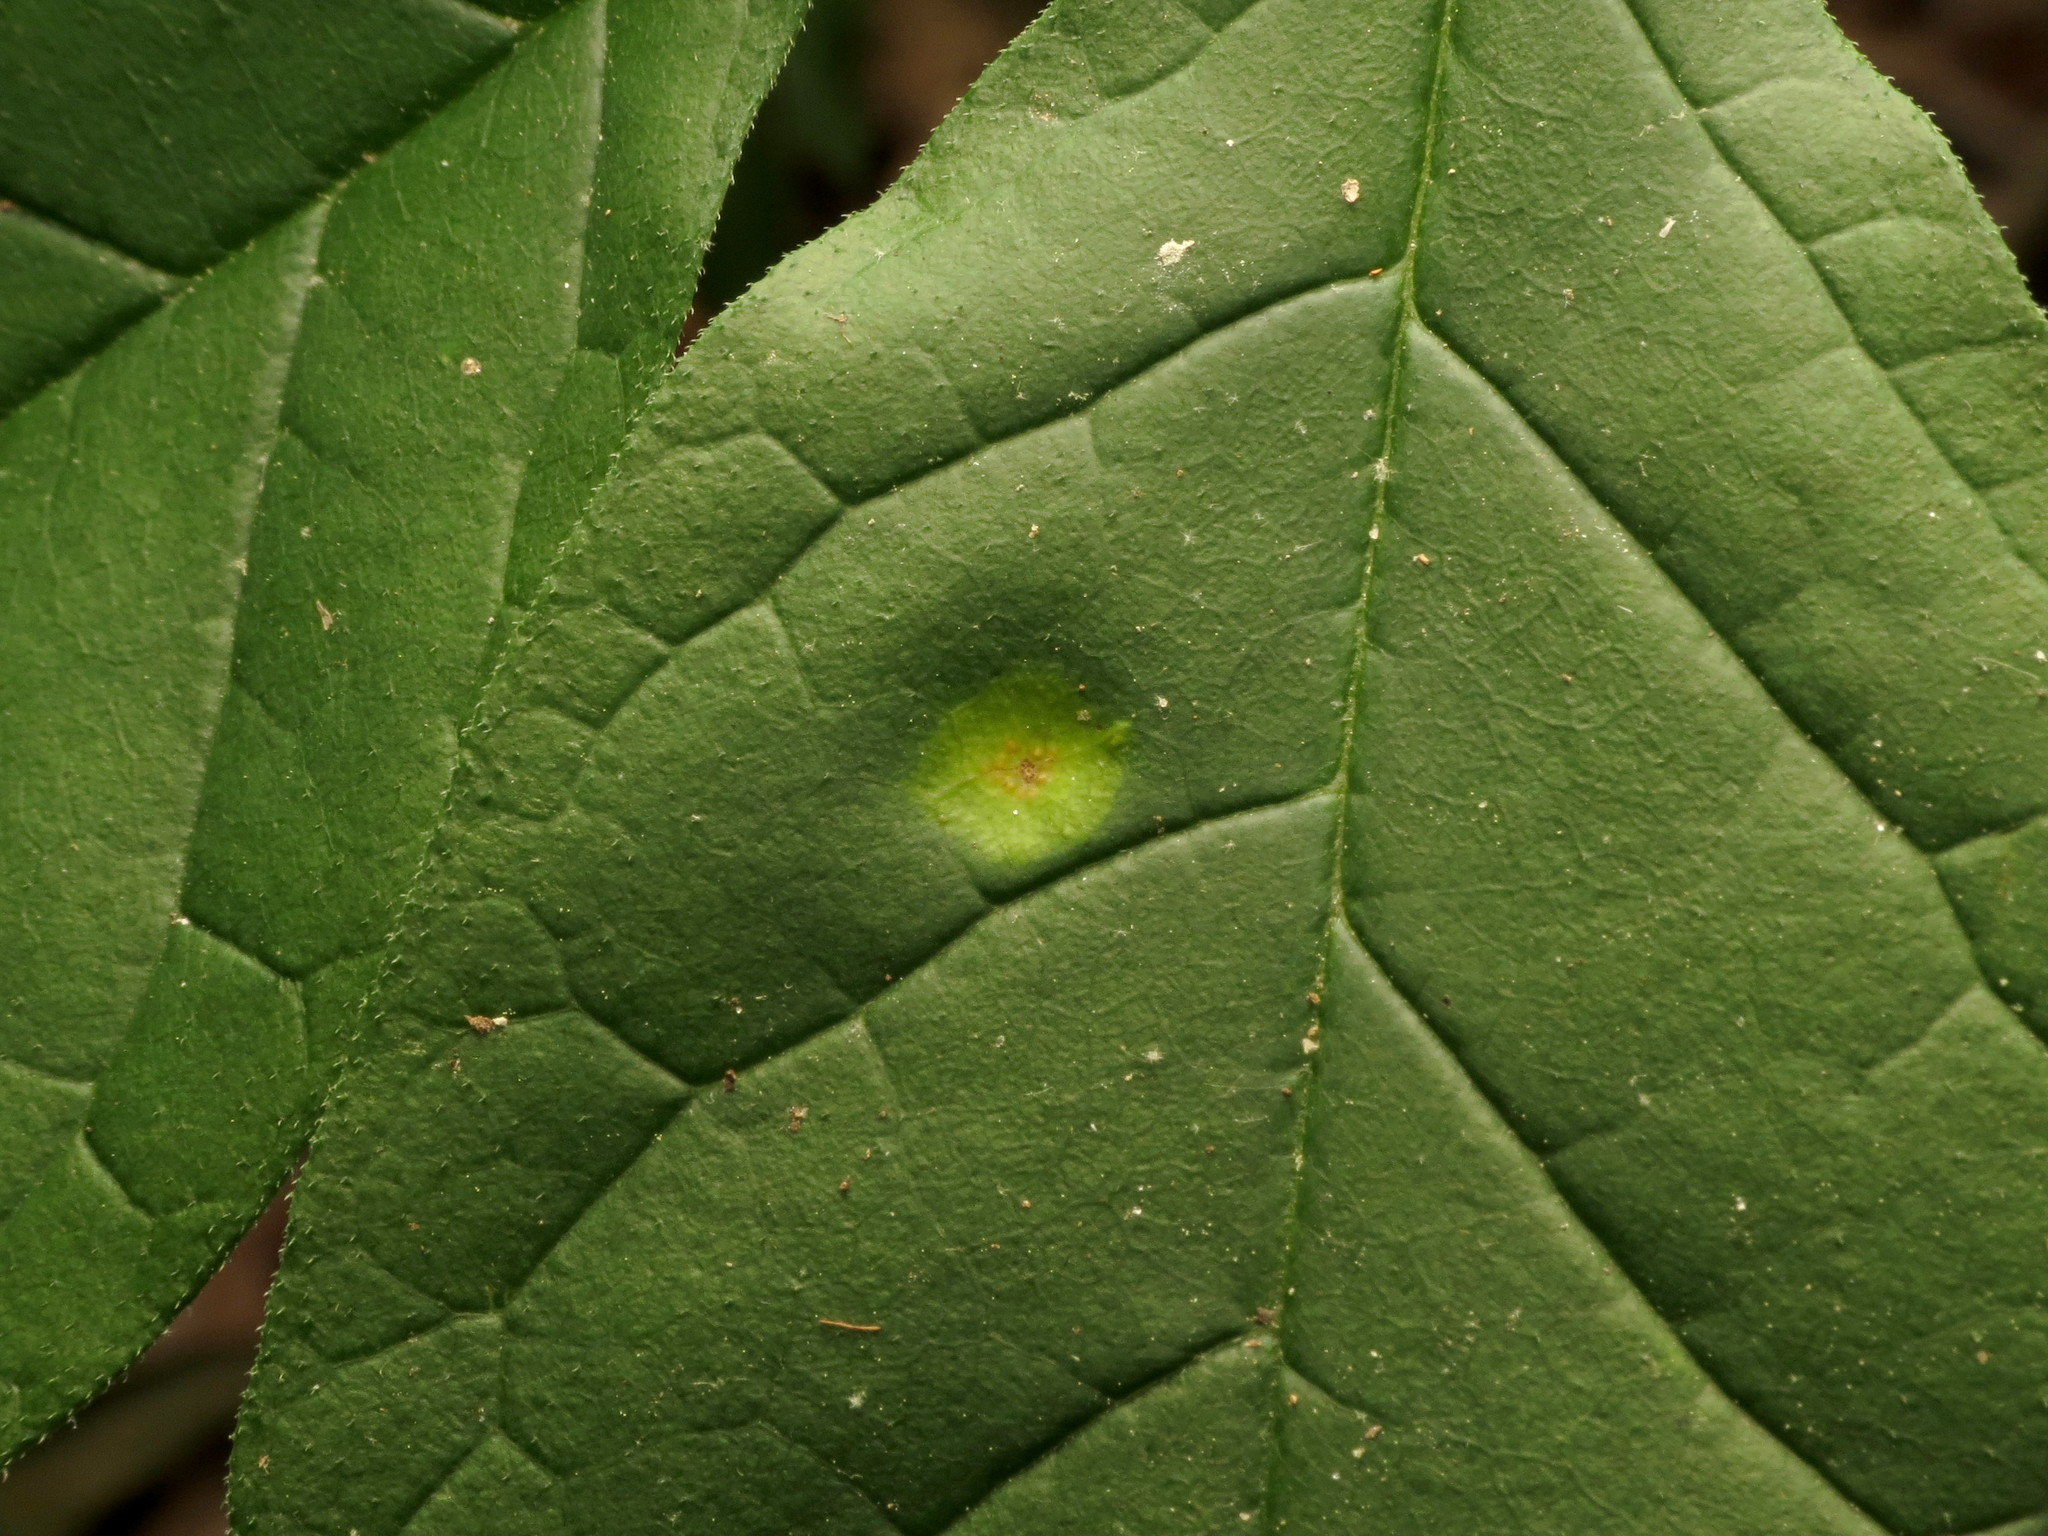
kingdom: Fungi
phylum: Basidiomycota
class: Pucciniomycetes
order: Pucciniales
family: Pucciniaceae
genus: Puccinia
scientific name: Puccinia sparganioidis
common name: Ash rust
